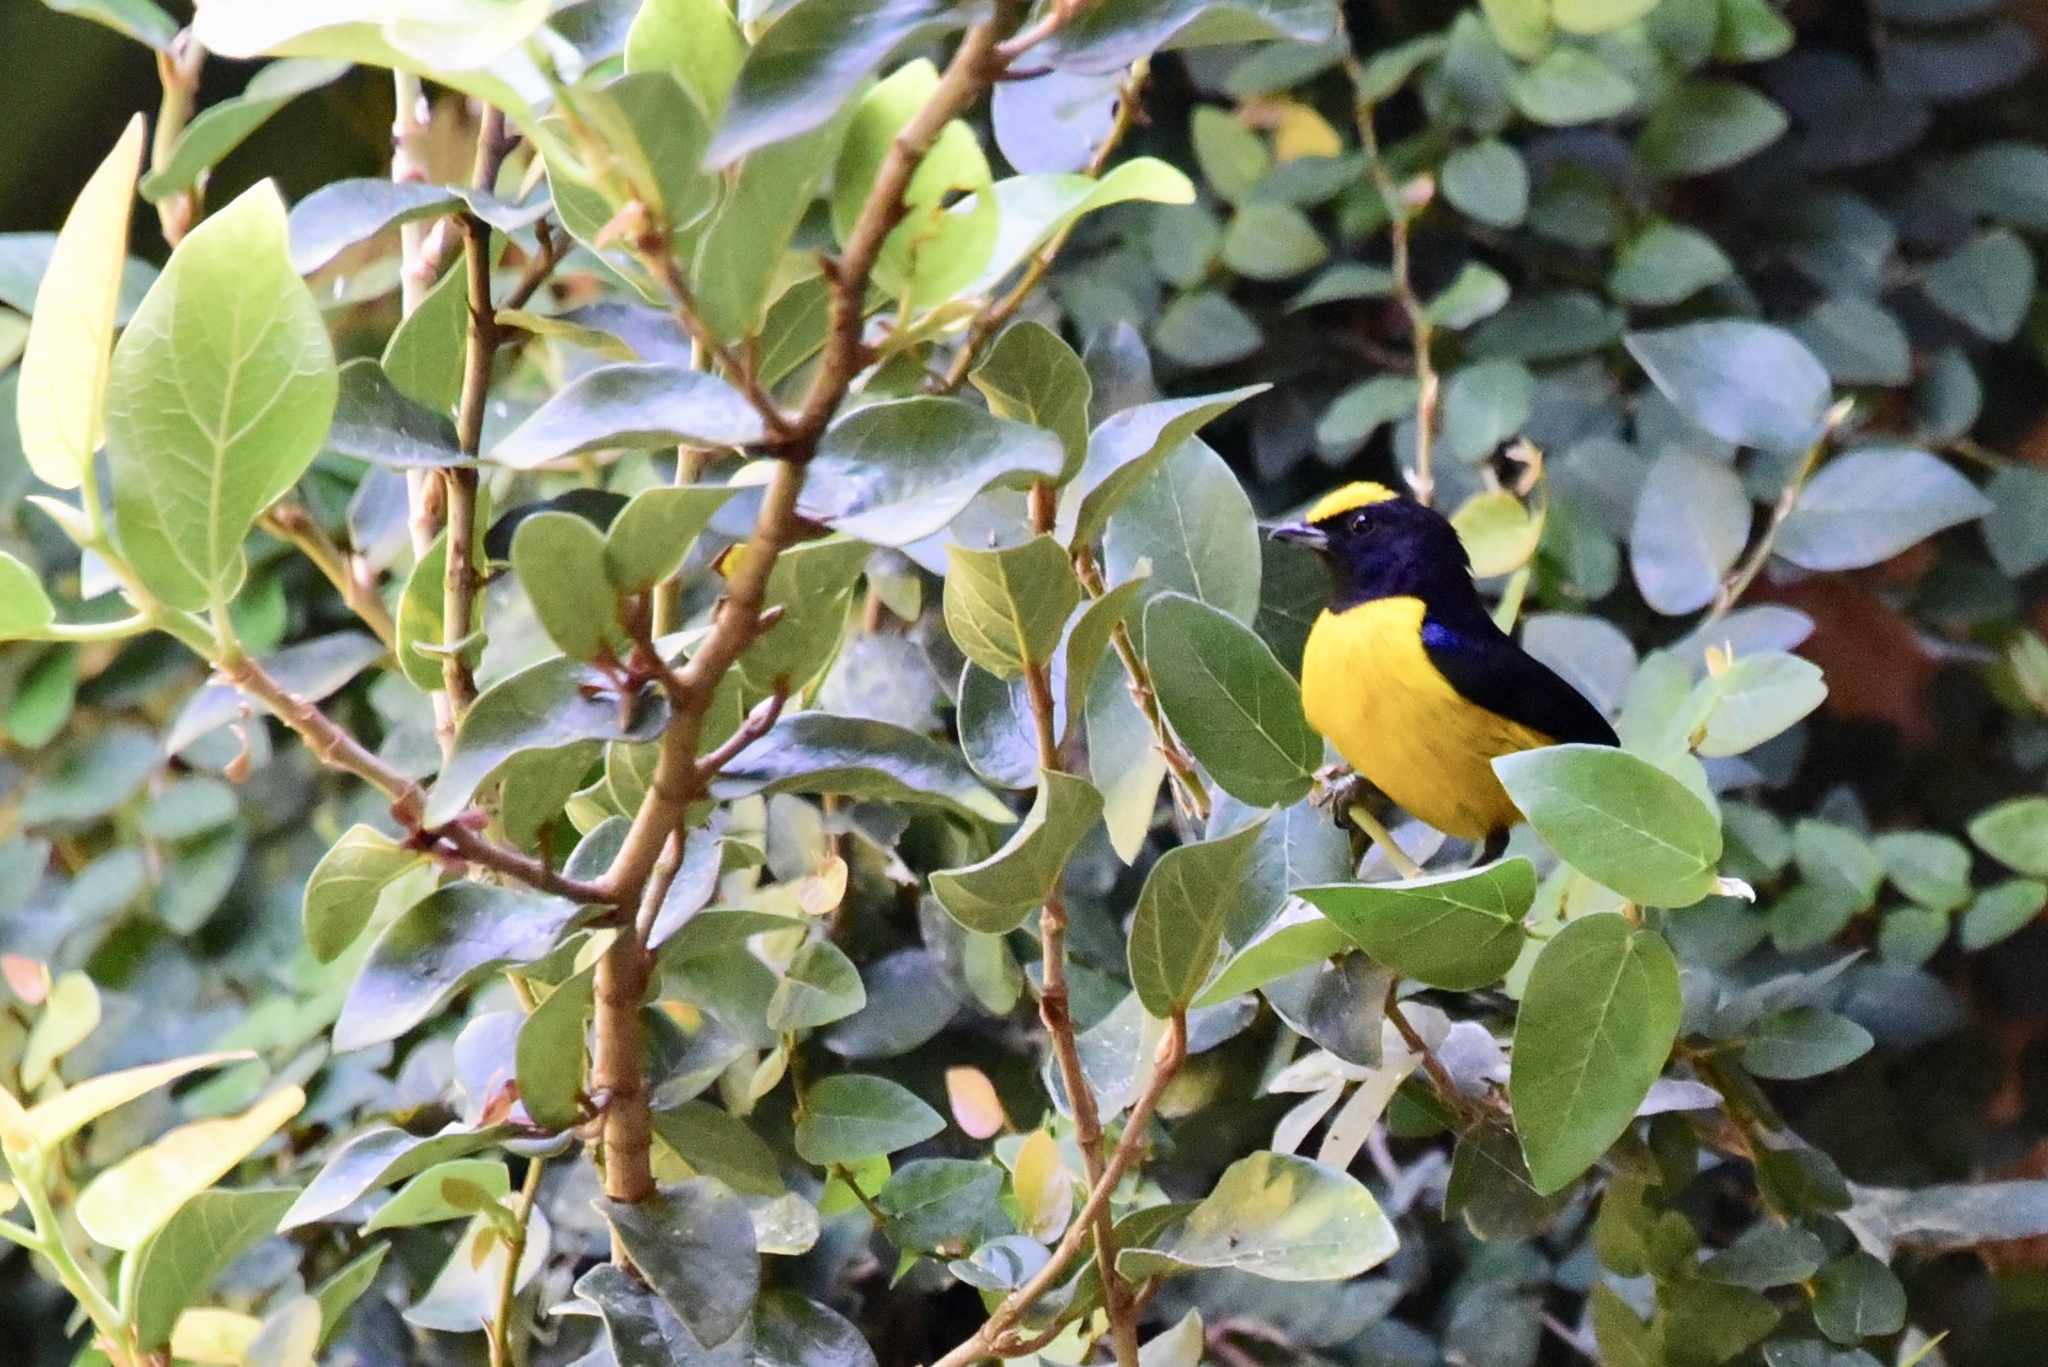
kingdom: Animalia
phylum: Chordata
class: Aves
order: Passeriformes
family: Fringillidae
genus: Euphonia
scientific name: Euphonia xanthogaster
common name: Orange-bellied euphonia
